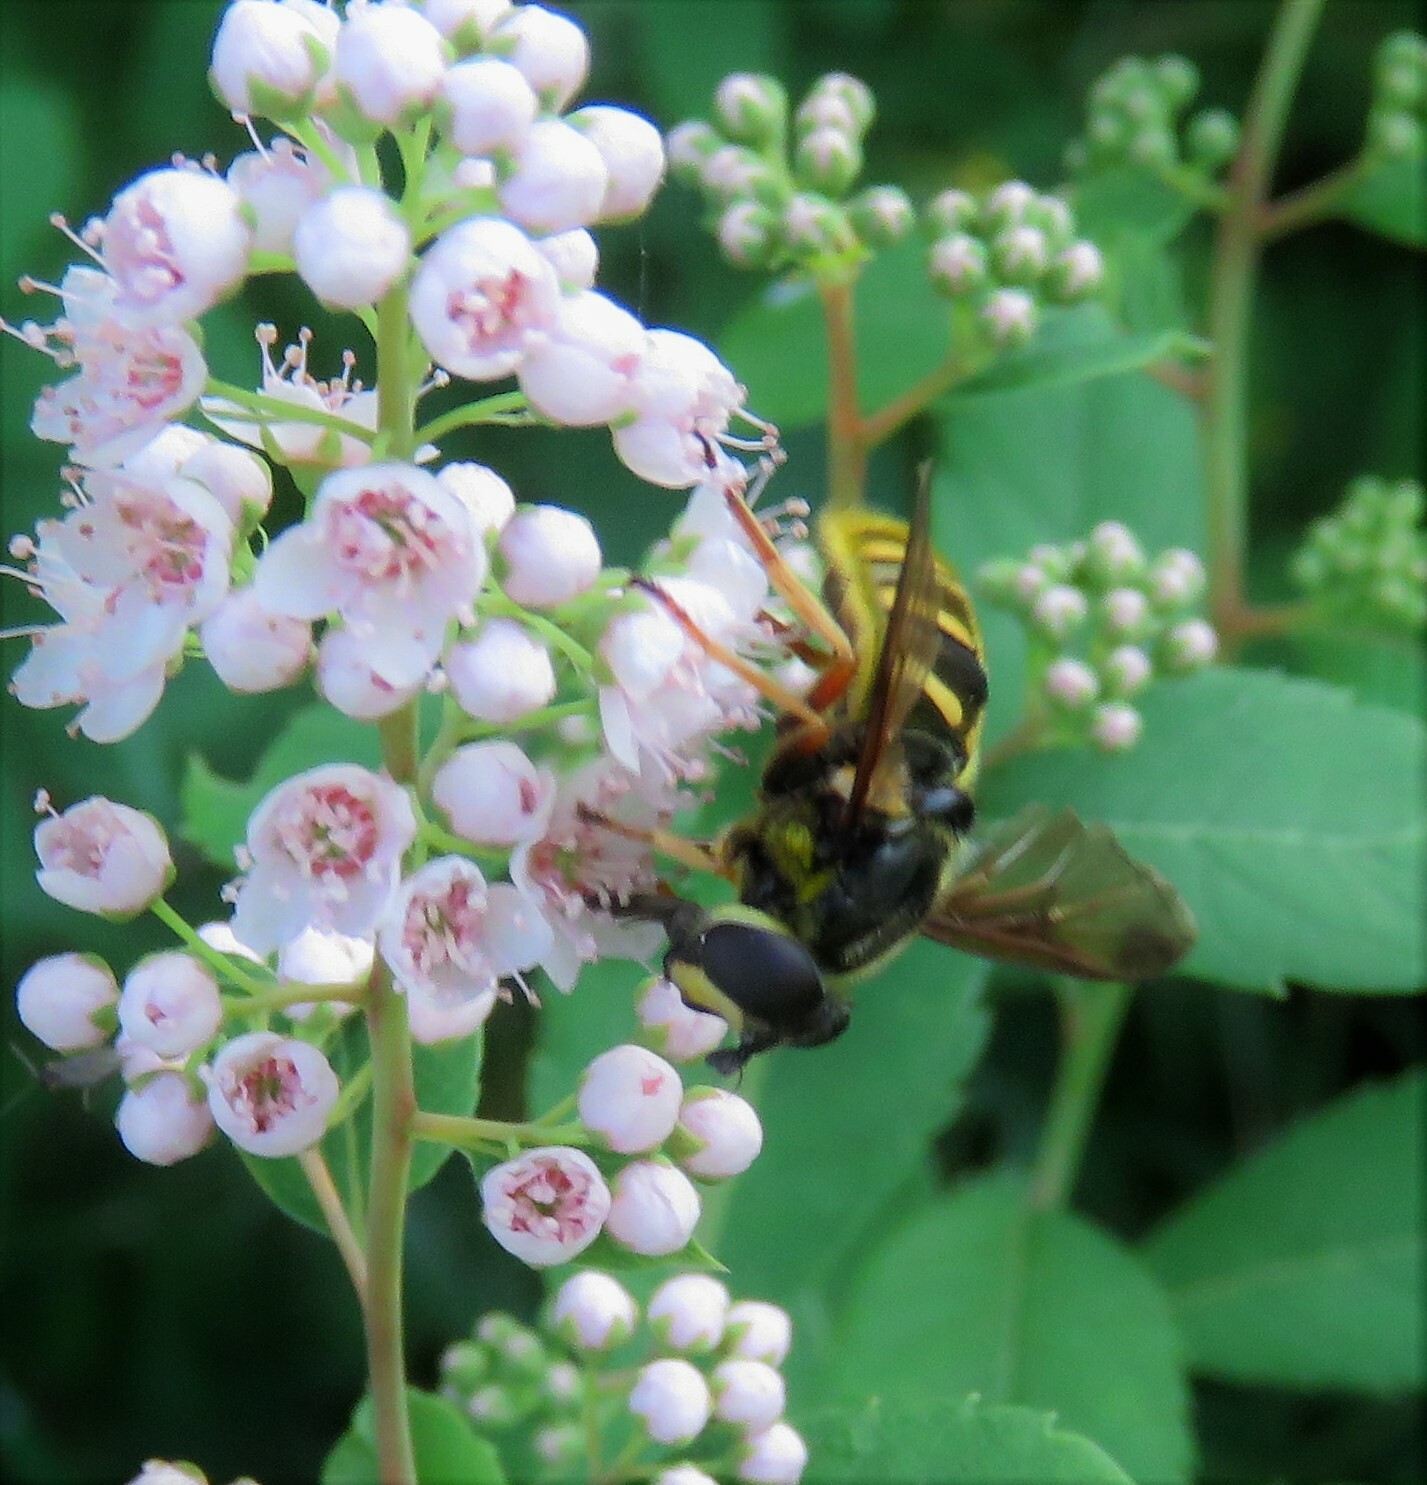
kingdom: Animalia
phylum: Arthropoda
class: Insecta
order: Diptera
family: Syrphidae
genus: Sericomyia
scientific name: Sericomyia chrysotoxoides
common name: Oblique-banded pond fly
